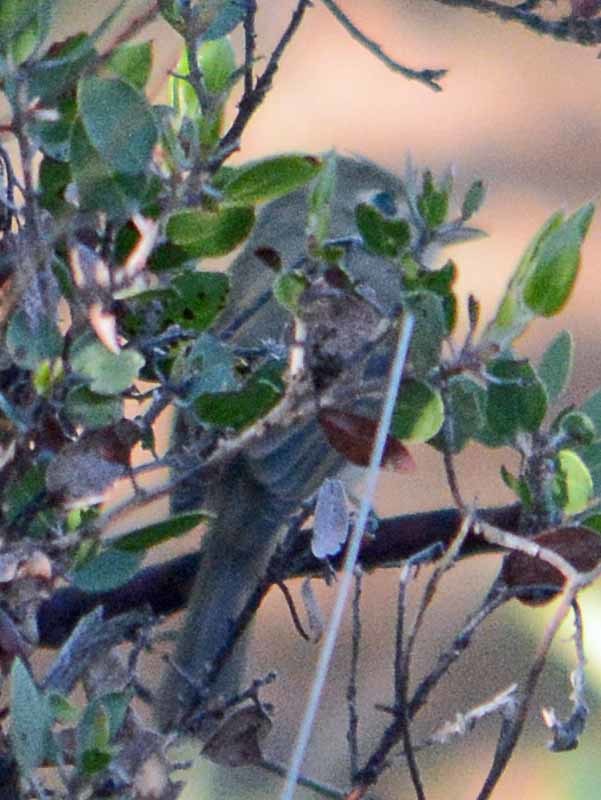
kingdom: Animalia
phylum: Chordata
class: Aves
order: Passeriformes
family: Vireonidae
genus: Vireo
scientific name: Vireo huttoni
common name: Hutton's vireo
